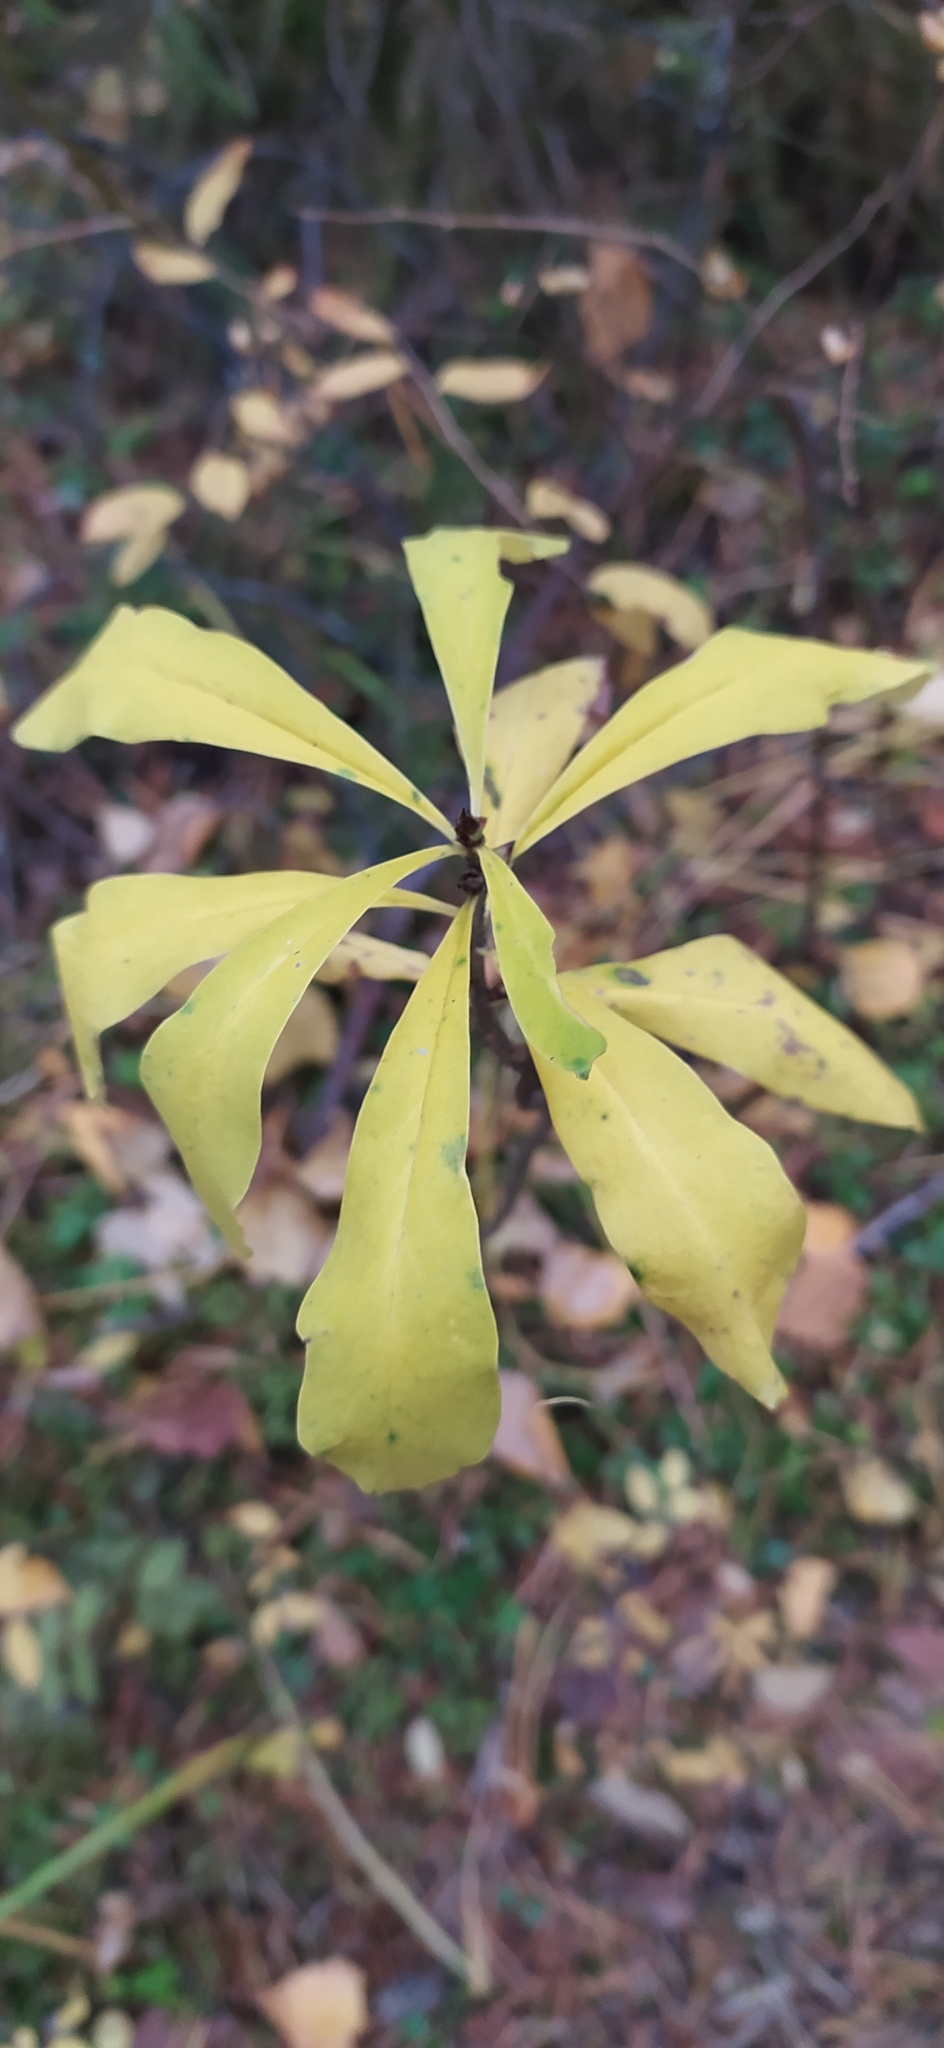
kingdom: Plantae
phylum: Tracheophyta
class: Magnoliopsida
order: Malvales
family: Thymelaeaceae
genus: Daphne
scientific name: Daphne mezereum
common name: Mezereon
